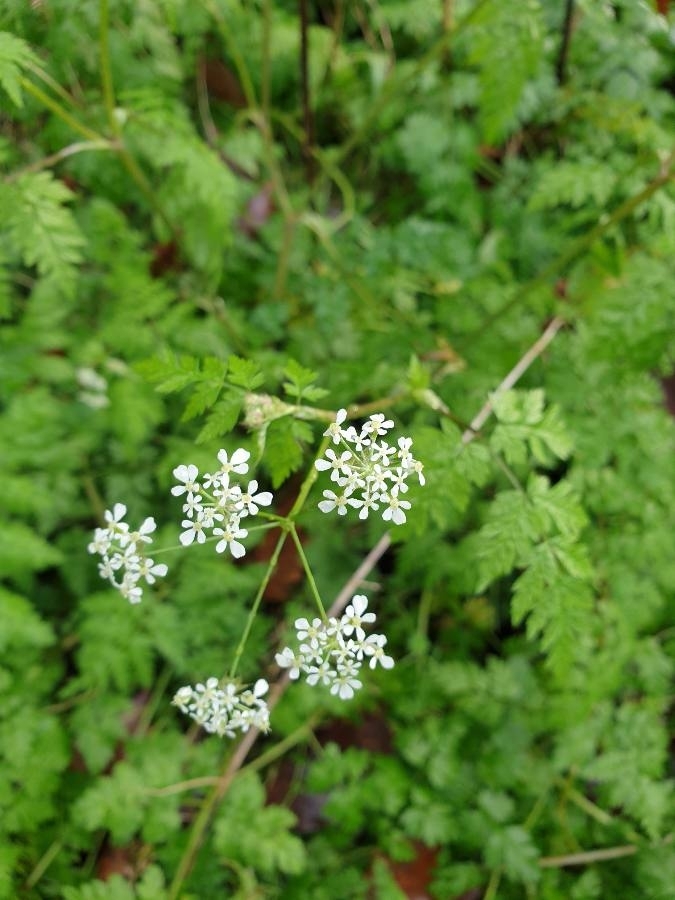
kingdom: Plantae
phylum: Tracheophyta
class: Magnoliopsida
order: Apiales
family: Apiaceae
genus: Anthriscus
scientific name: Anthriscus sylvestris
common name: Cow parsley
